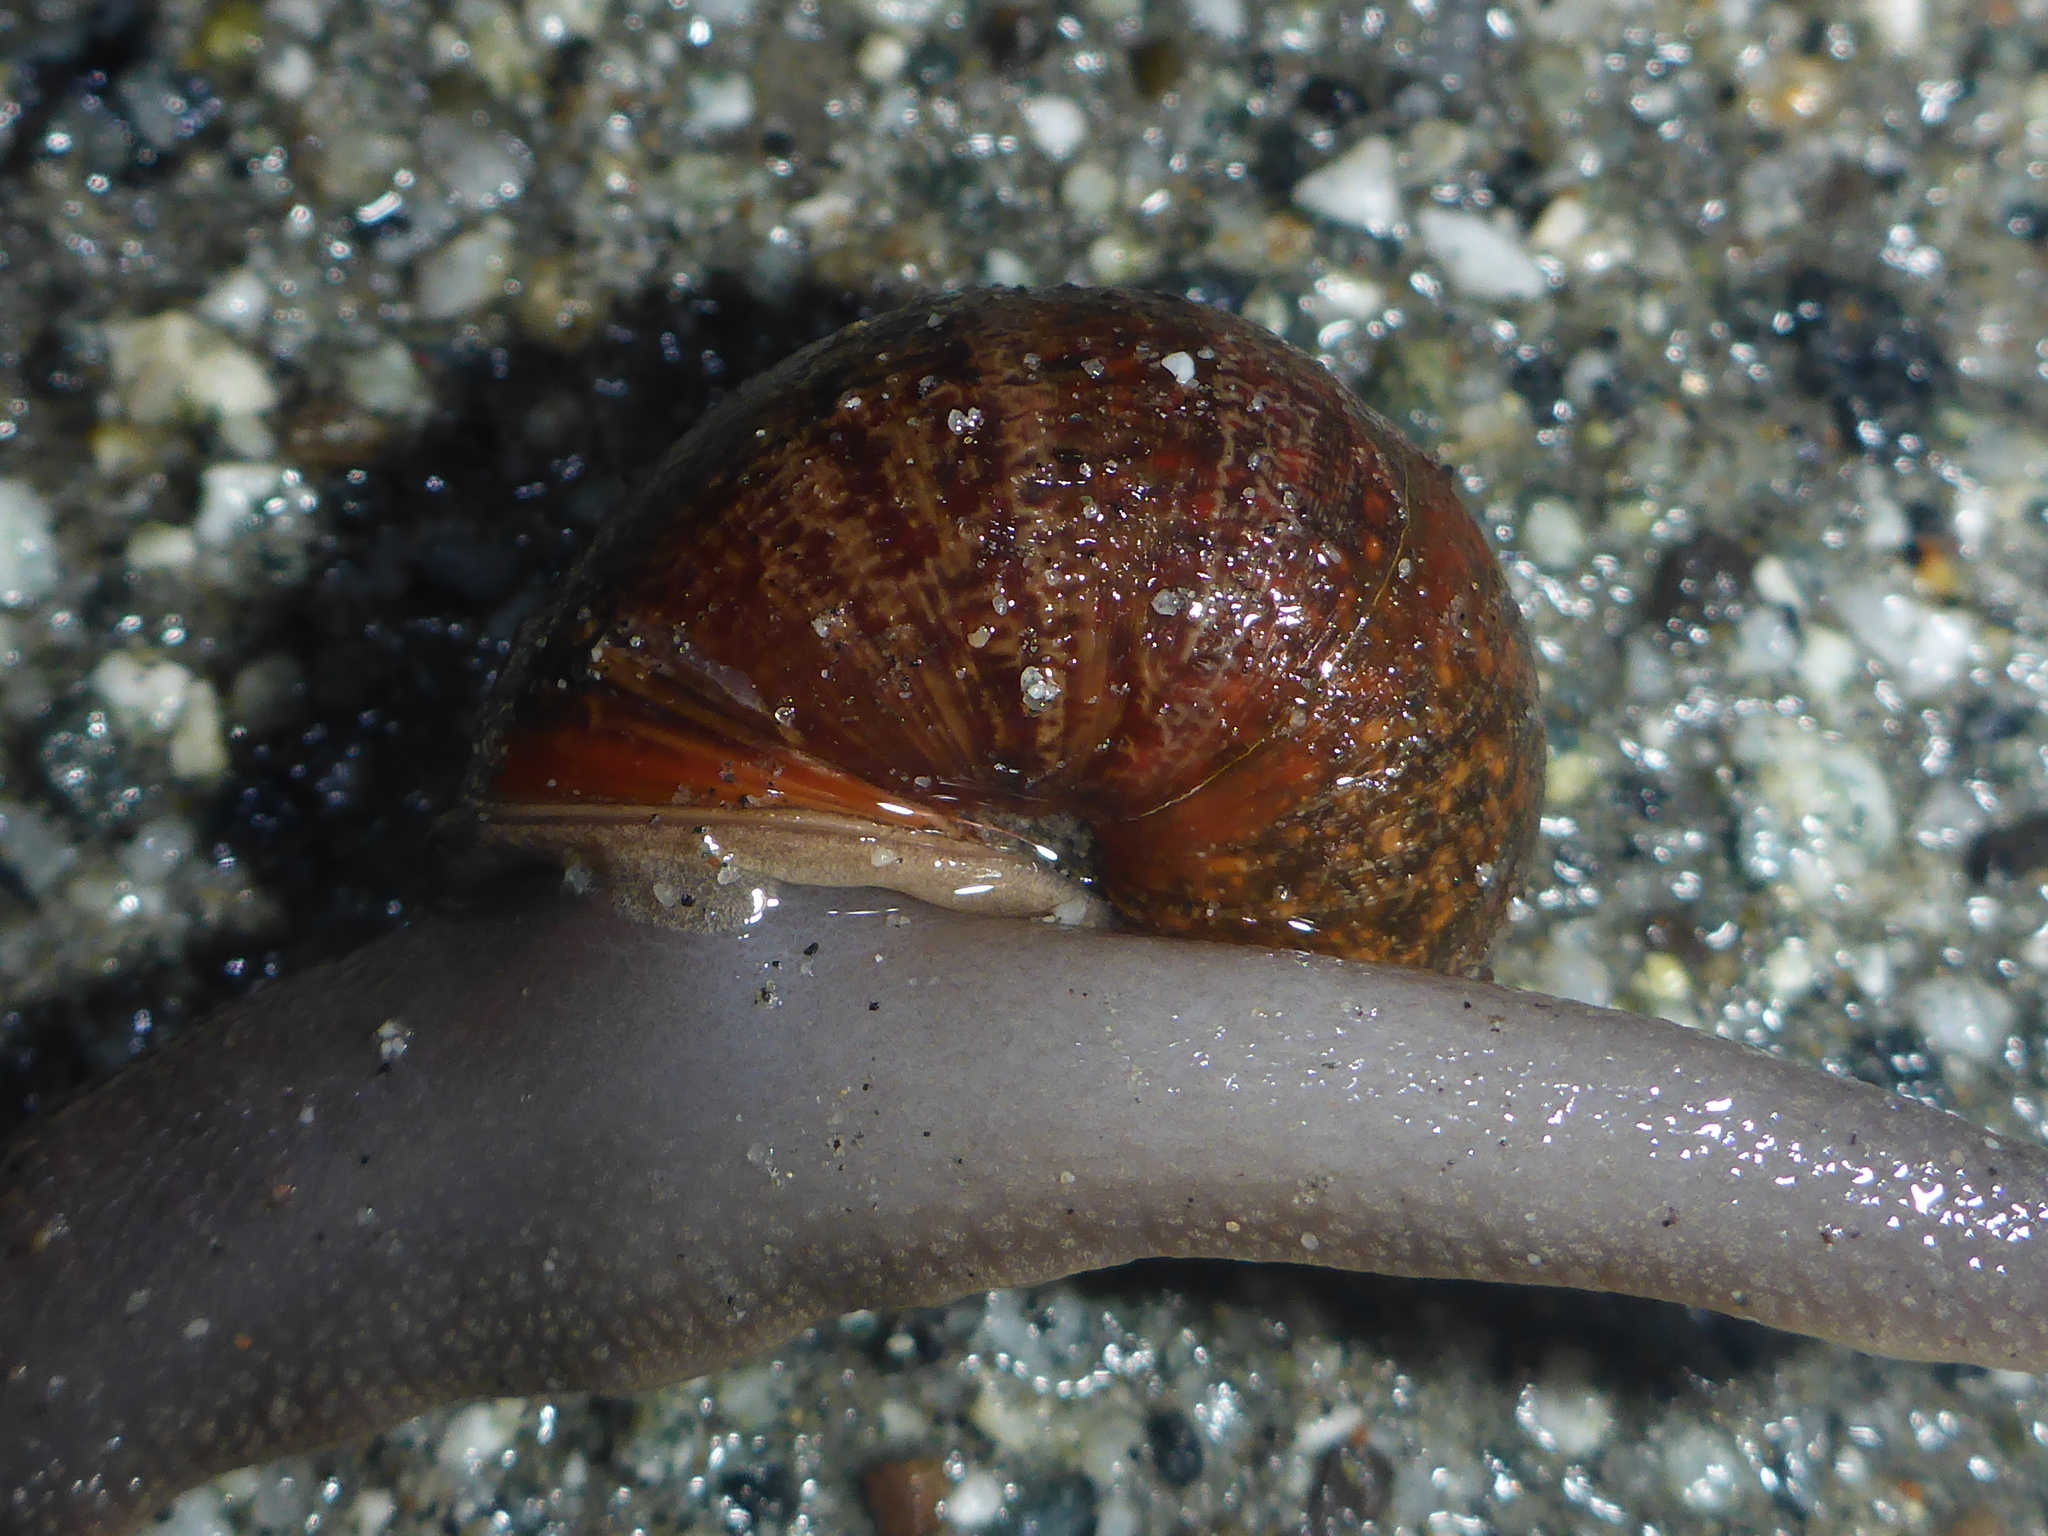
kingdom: Animalia
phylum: Mollusca
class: Gastropoda
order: Stylommatophora
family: Xanthonychidae
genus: Helminthoglypta
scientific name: Helminthoglypta nickliniana
